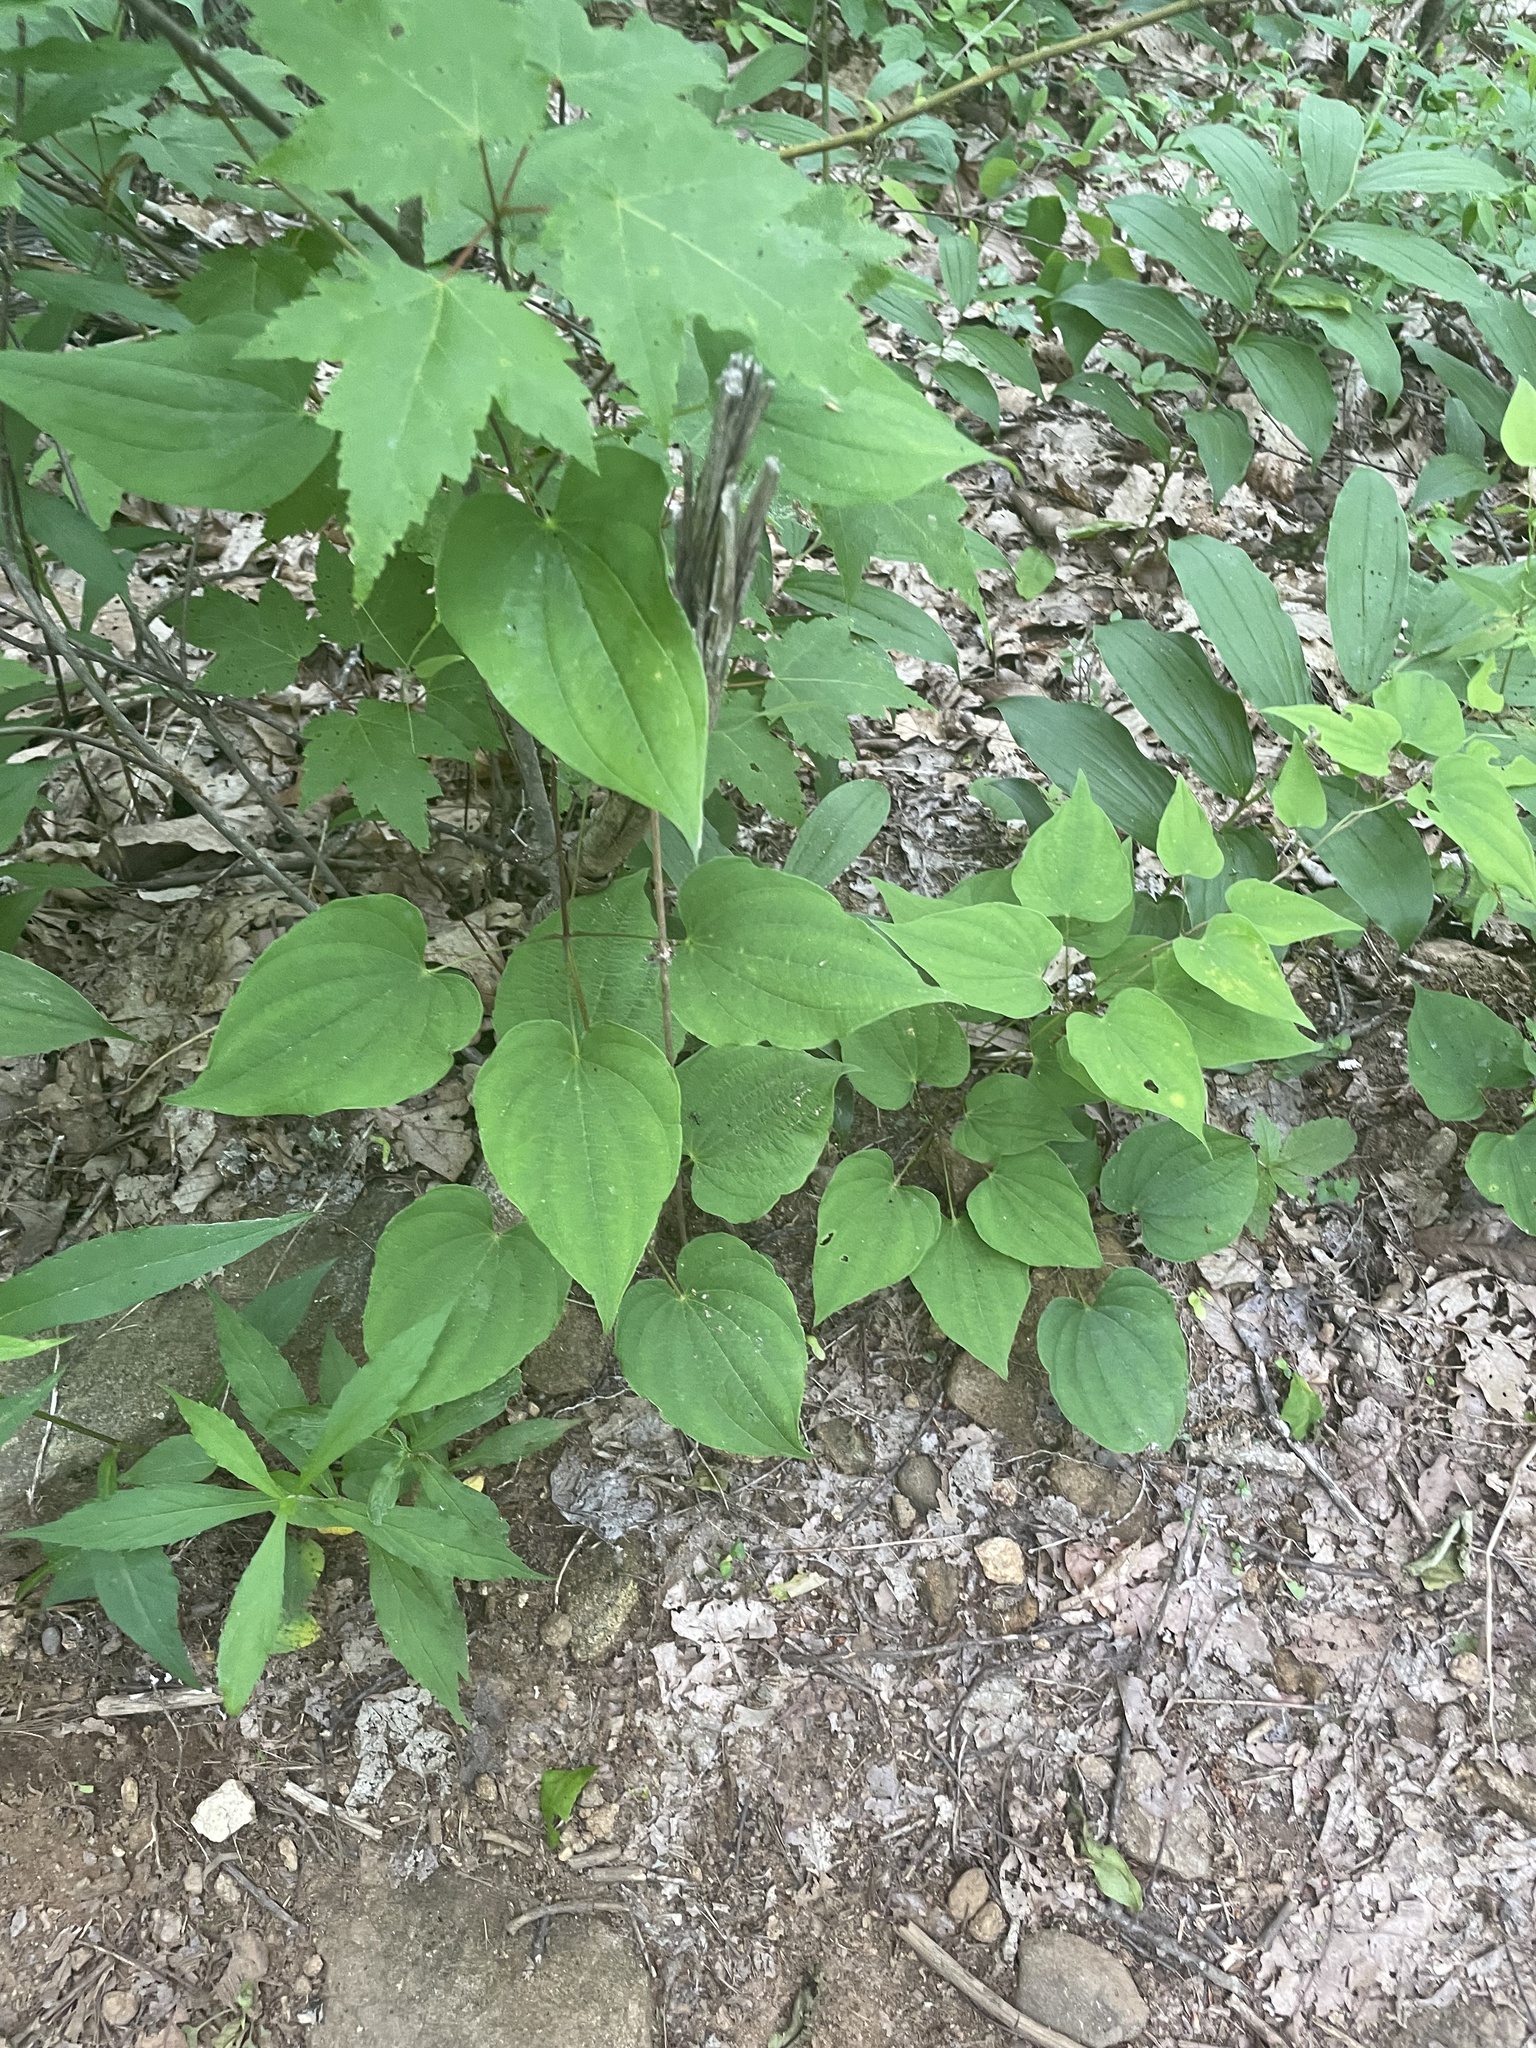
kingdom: Plantae
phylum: Tracheophyta
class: Liliopsida
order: Dioscoreales
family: Dioscoreaceae
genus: Dioscorea
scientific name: Dioscorea villosa
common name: Wild yam
